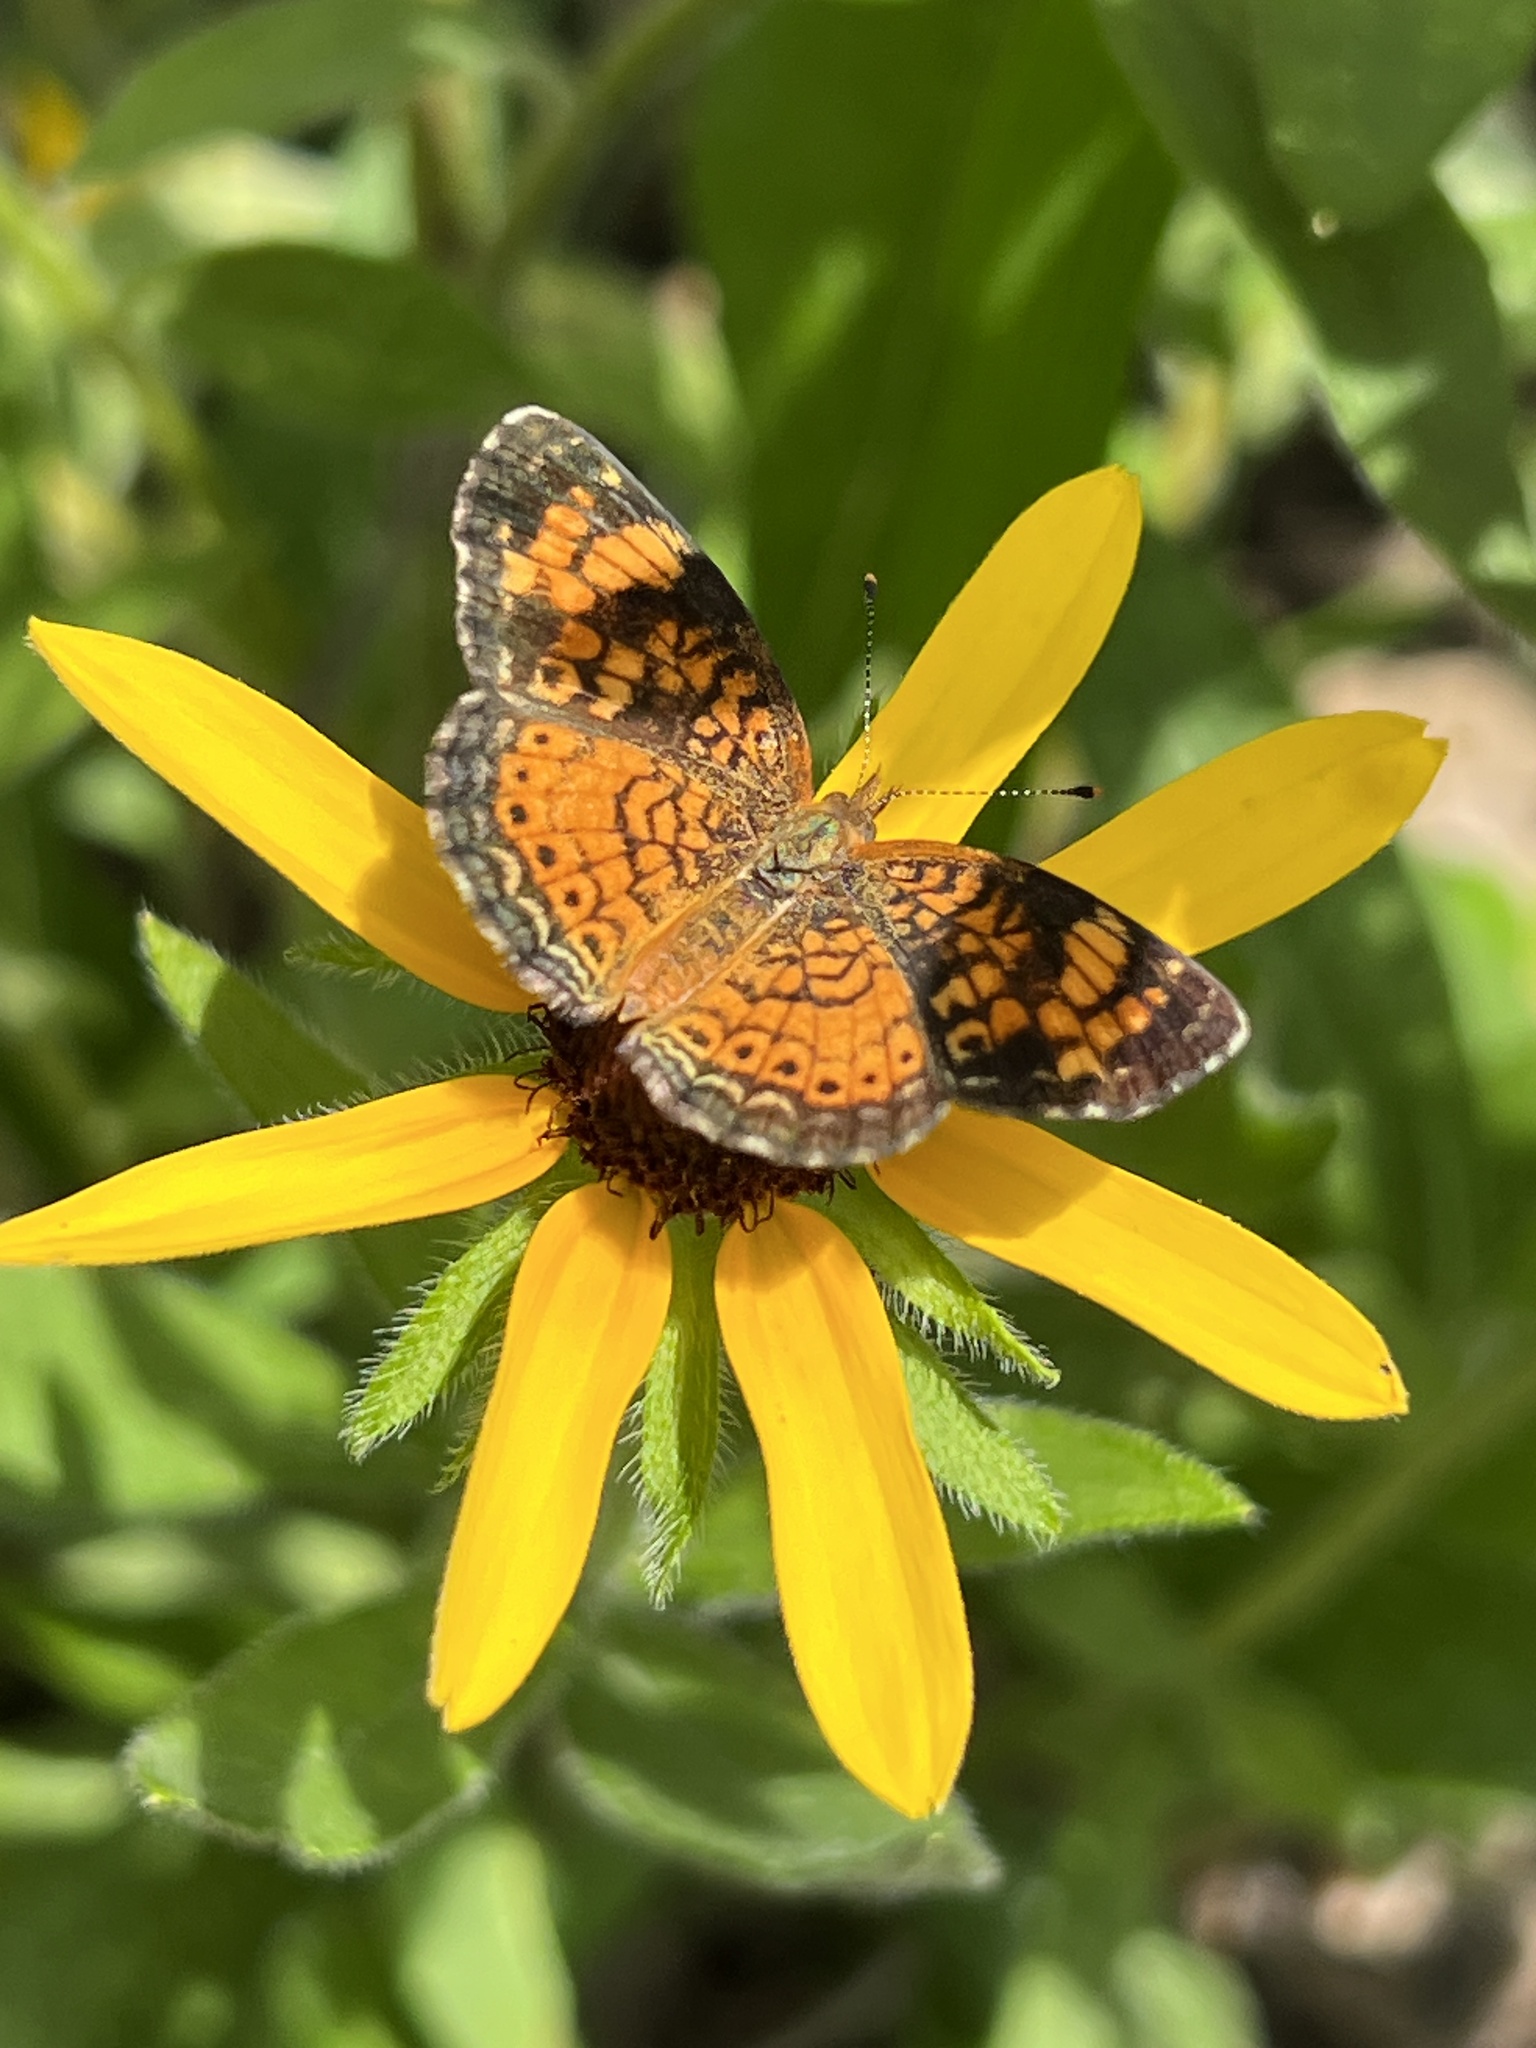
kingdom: Animalia
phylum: Arthropoda
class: Insecta
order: Lepidoptera
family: Nymphalidae
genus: Phyciodes
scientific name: Phyciodes tharos
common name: Pearl crescent
